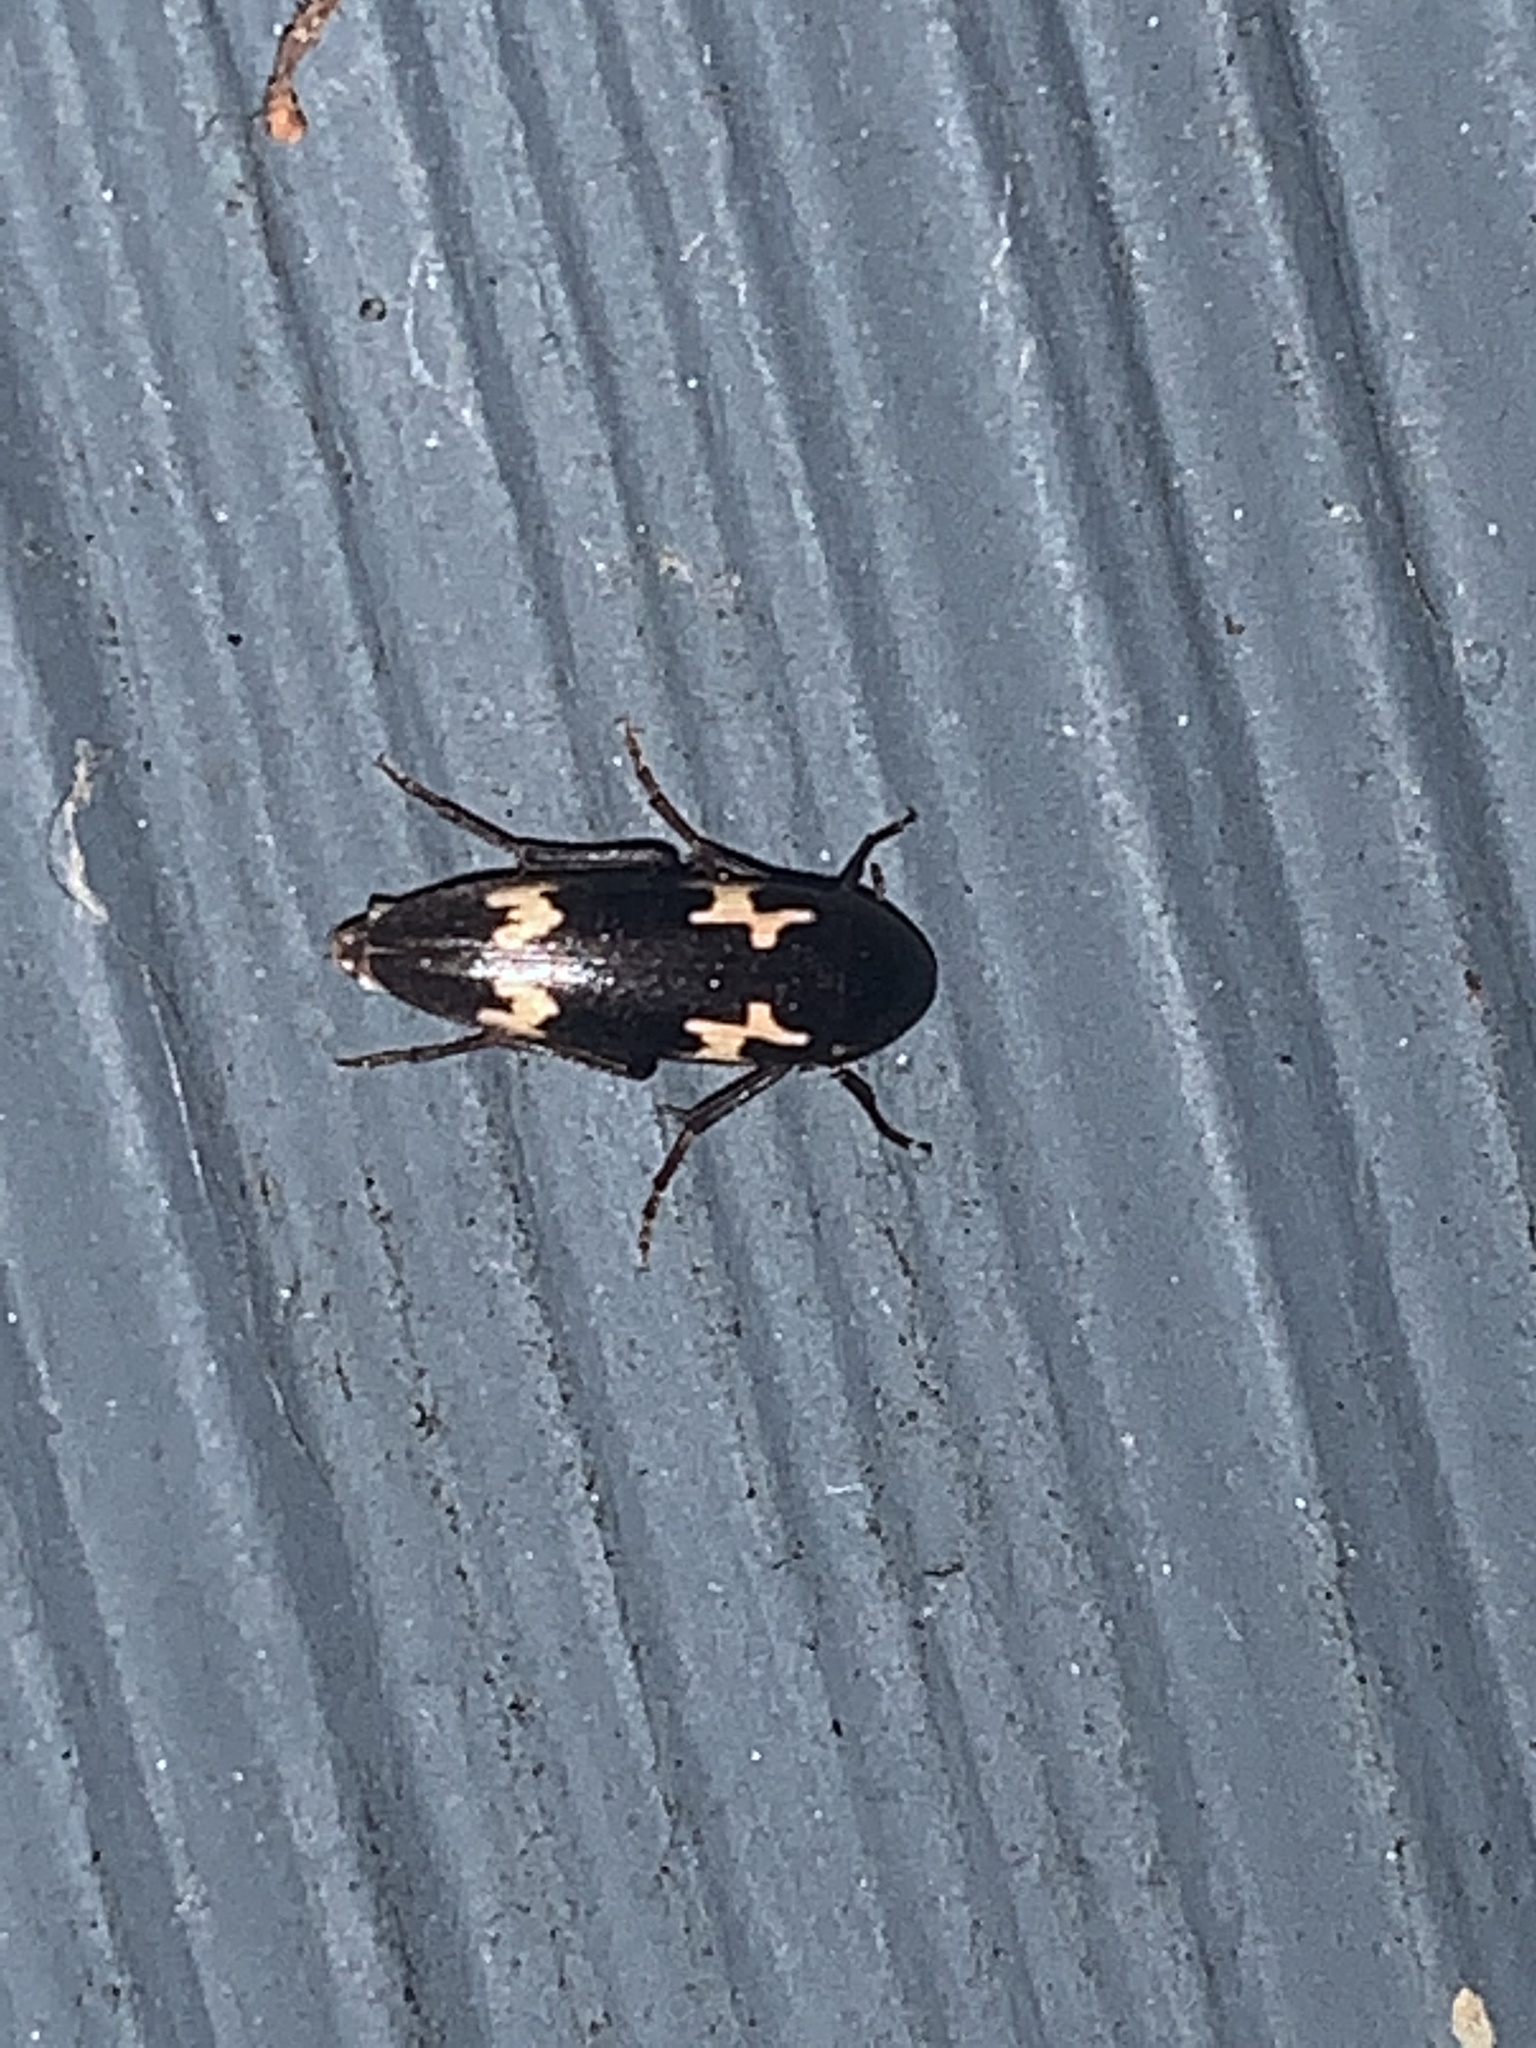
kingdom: Animalia
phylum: Arthropoda
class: Insecta
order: Coleoptera
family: Melandryidae
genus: Dircaea
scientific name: Dircaea liturata
